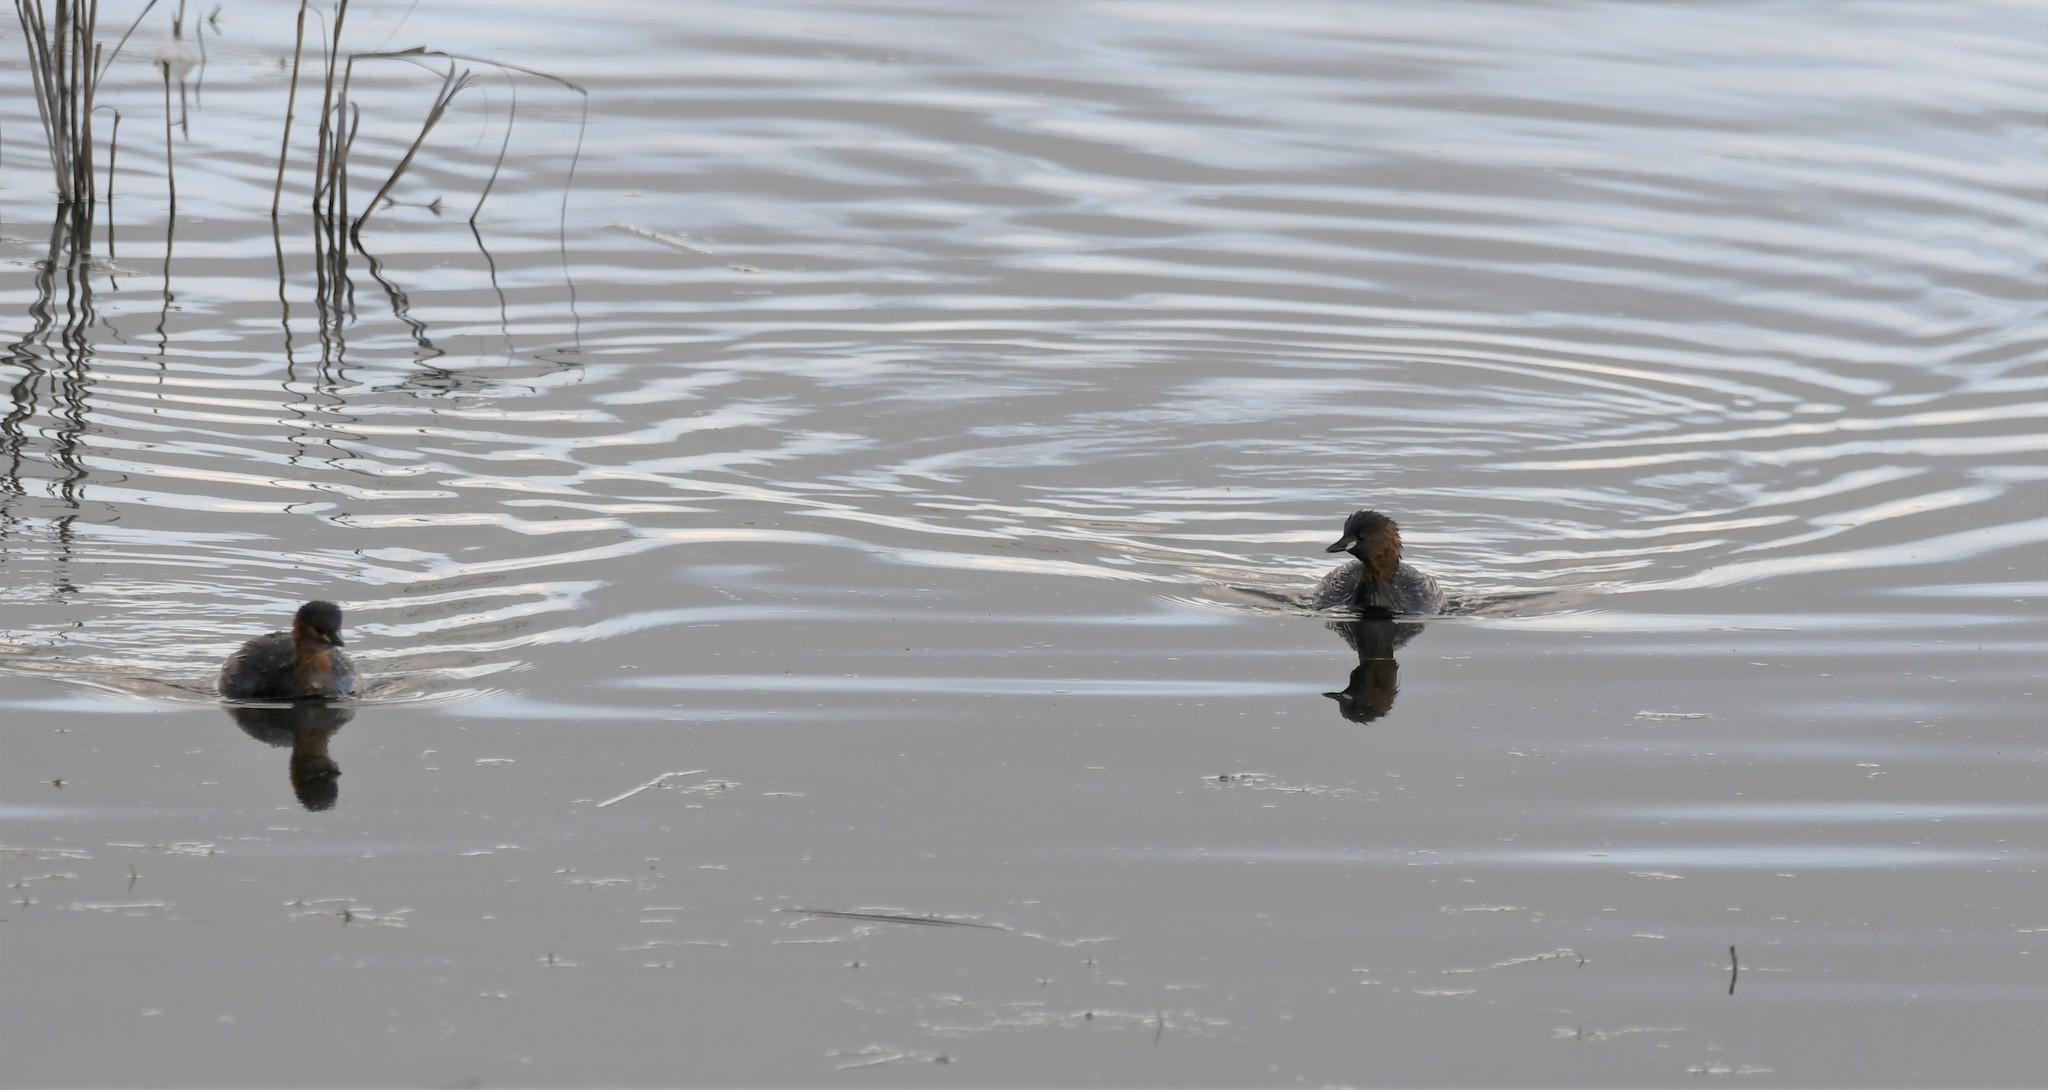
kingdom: Animalia
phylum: Chordata
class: Aves
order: Podicipediformes
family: Podicipedidae
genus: Tachybaptus
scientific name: Tachybaptus ruficollis
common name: Little grebe
